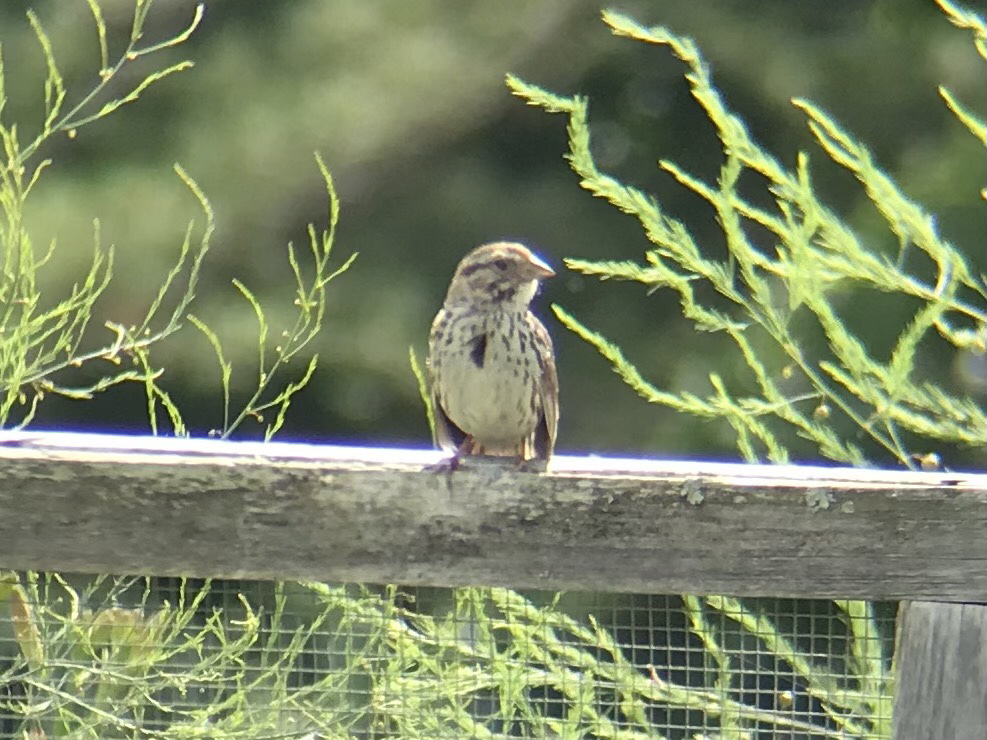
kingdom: Animalia
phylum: Chordata
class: Aves
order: Passeriformes
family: Passerellidae
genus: Melospiza
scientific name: Melospiza melodia
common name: Song sparrow
